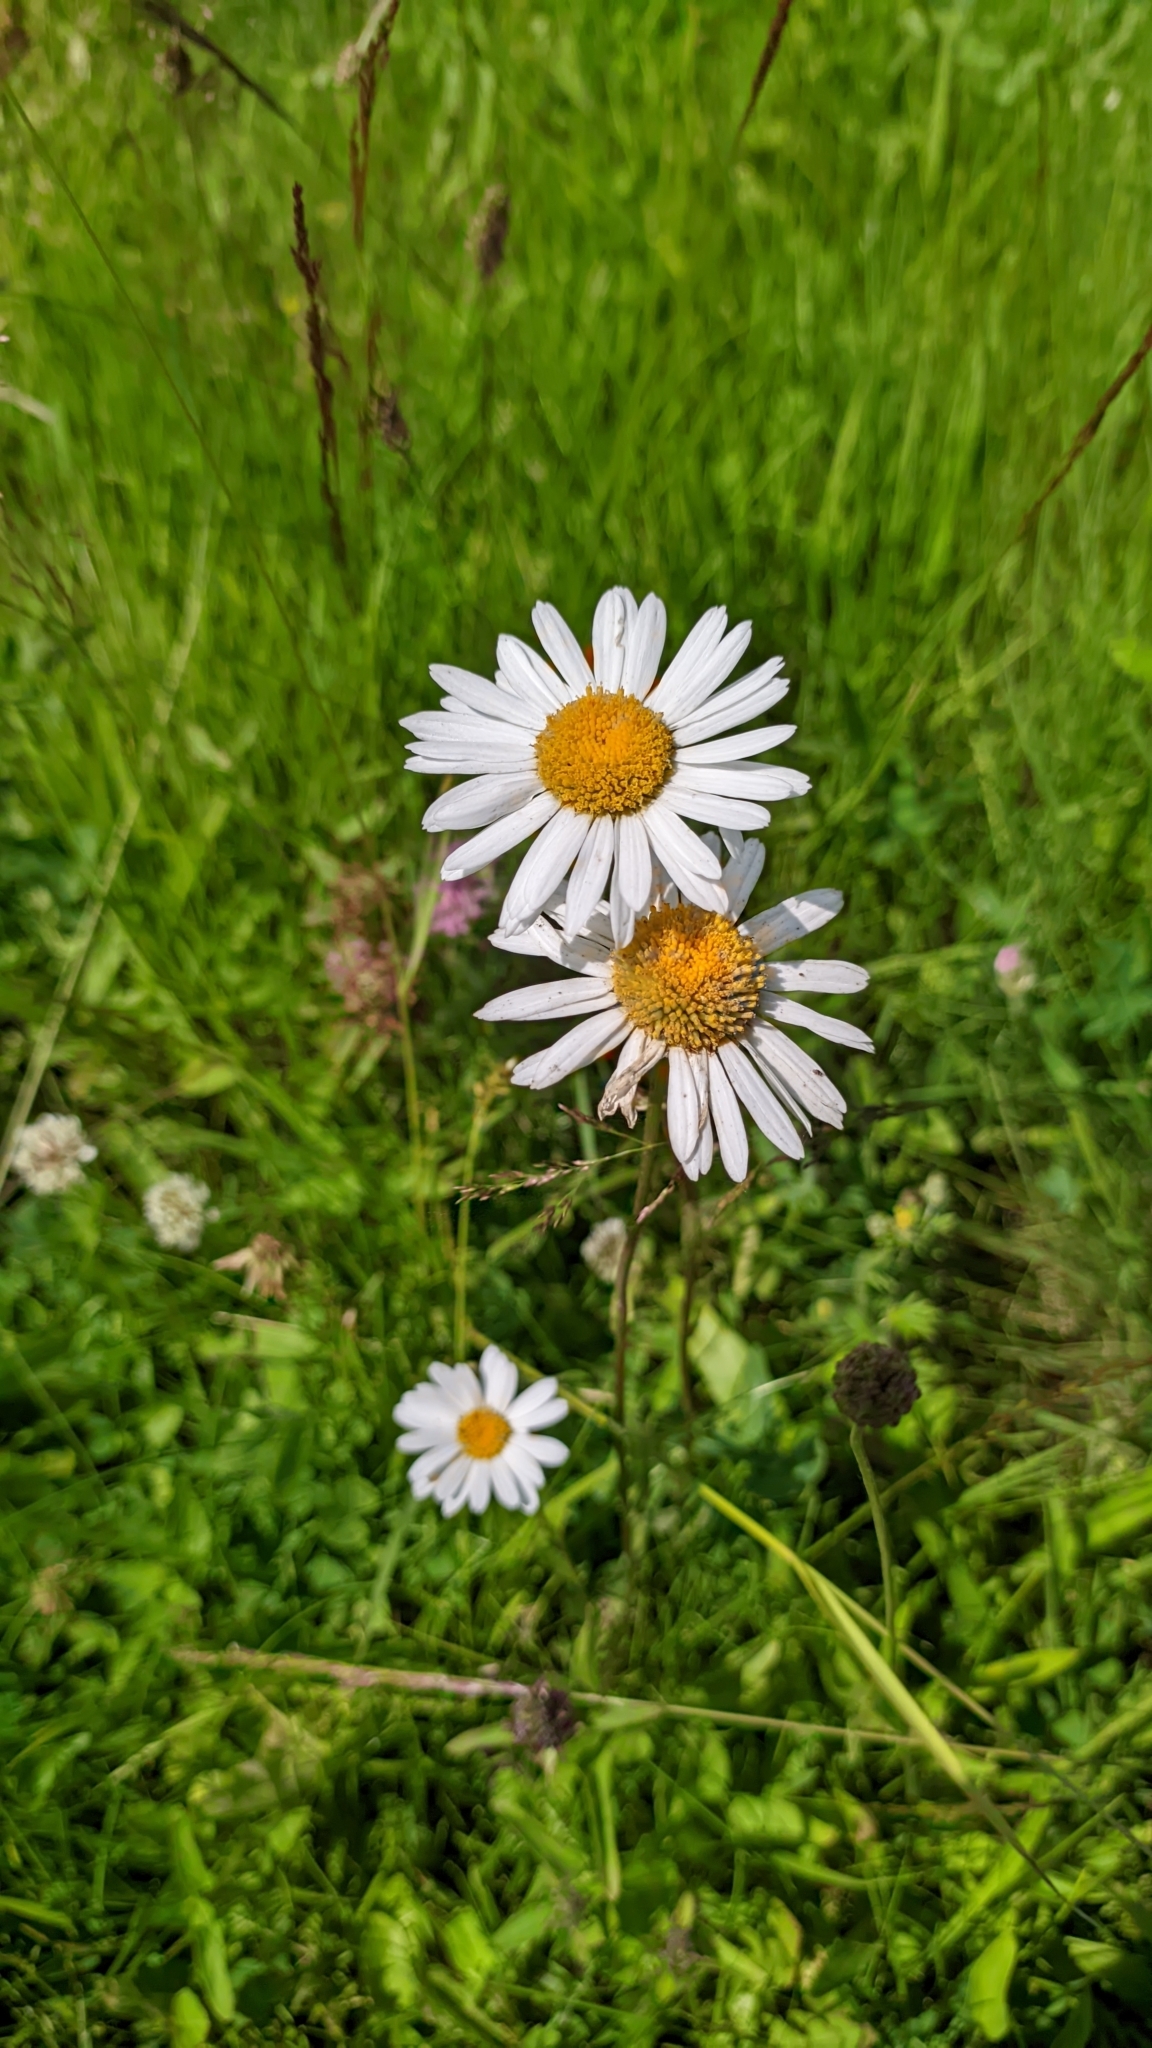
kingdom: Plantae
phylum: Tracheophyta
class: Magnoliopsida
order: Asterales
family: Asteraceae
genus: Leucanthemum
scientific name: Leucanthemum vulgare
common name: Oxeye daisy
